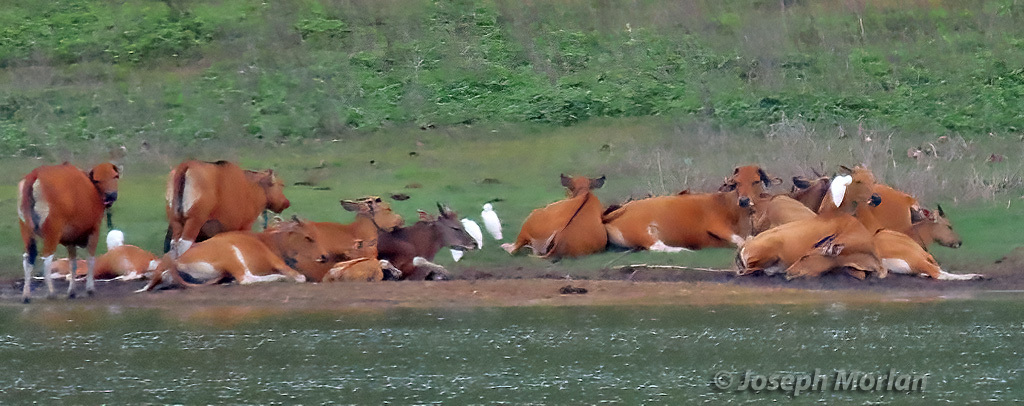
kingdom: Animalia
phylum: Chordata
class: Aves
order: Pelecaniformes
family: Ardeidae
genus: Bubulcus
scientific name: Bubulcus coromandus
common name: Eastern cattle egret
